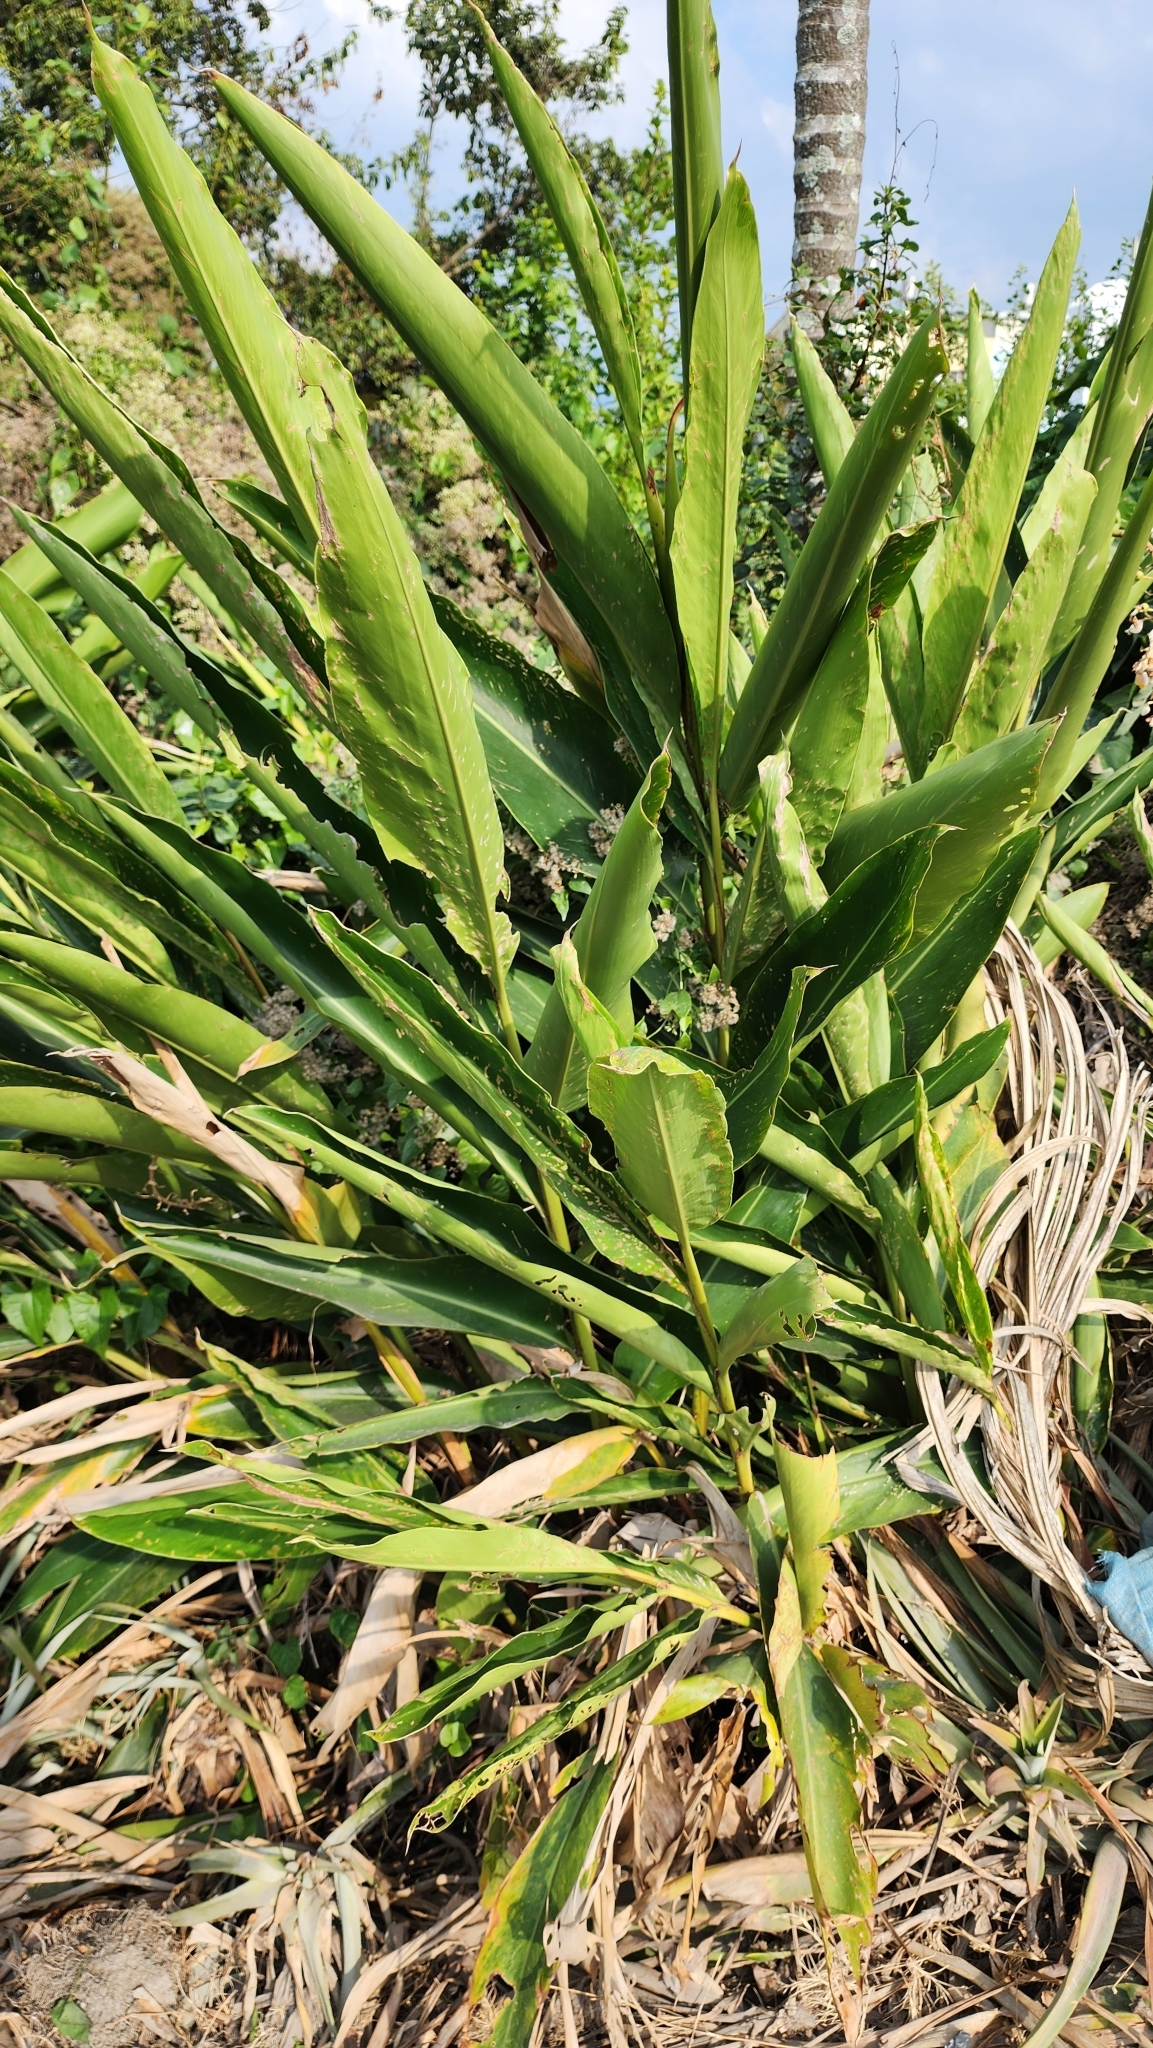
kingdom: Plantae
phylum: Tracheophyta
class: Liliopsida
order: Zingiberales
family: Zingiberaceae
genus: Alpinia
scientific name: Alpinia zerumbet
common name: Shellplant
